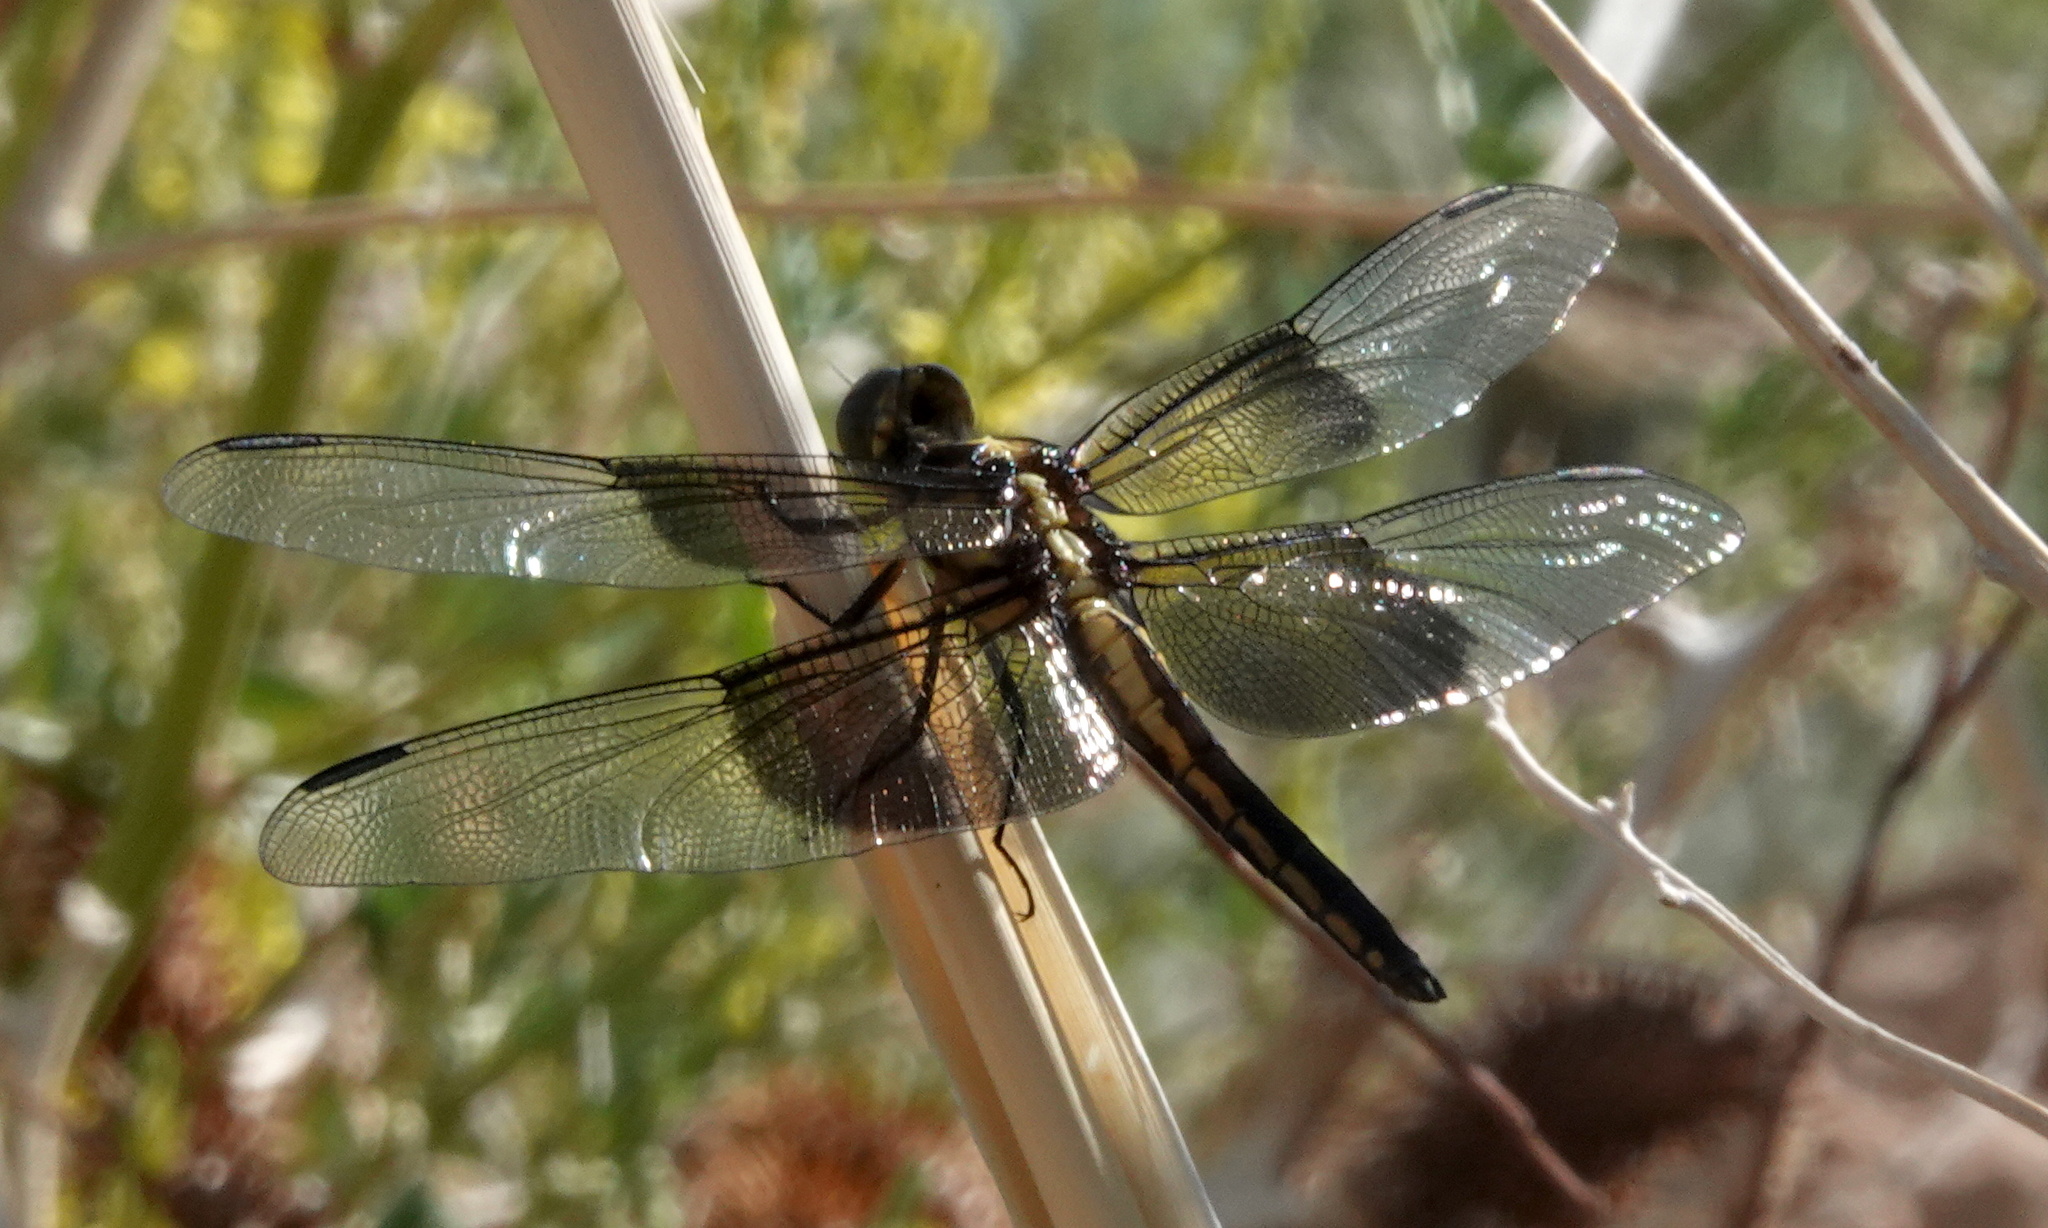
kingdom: Animalia
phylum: Arthropoda
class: Insecta
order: Odonata
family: Libellulidae
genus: Libellula
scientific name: Libellula luctuosa
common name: Widow skimmer
